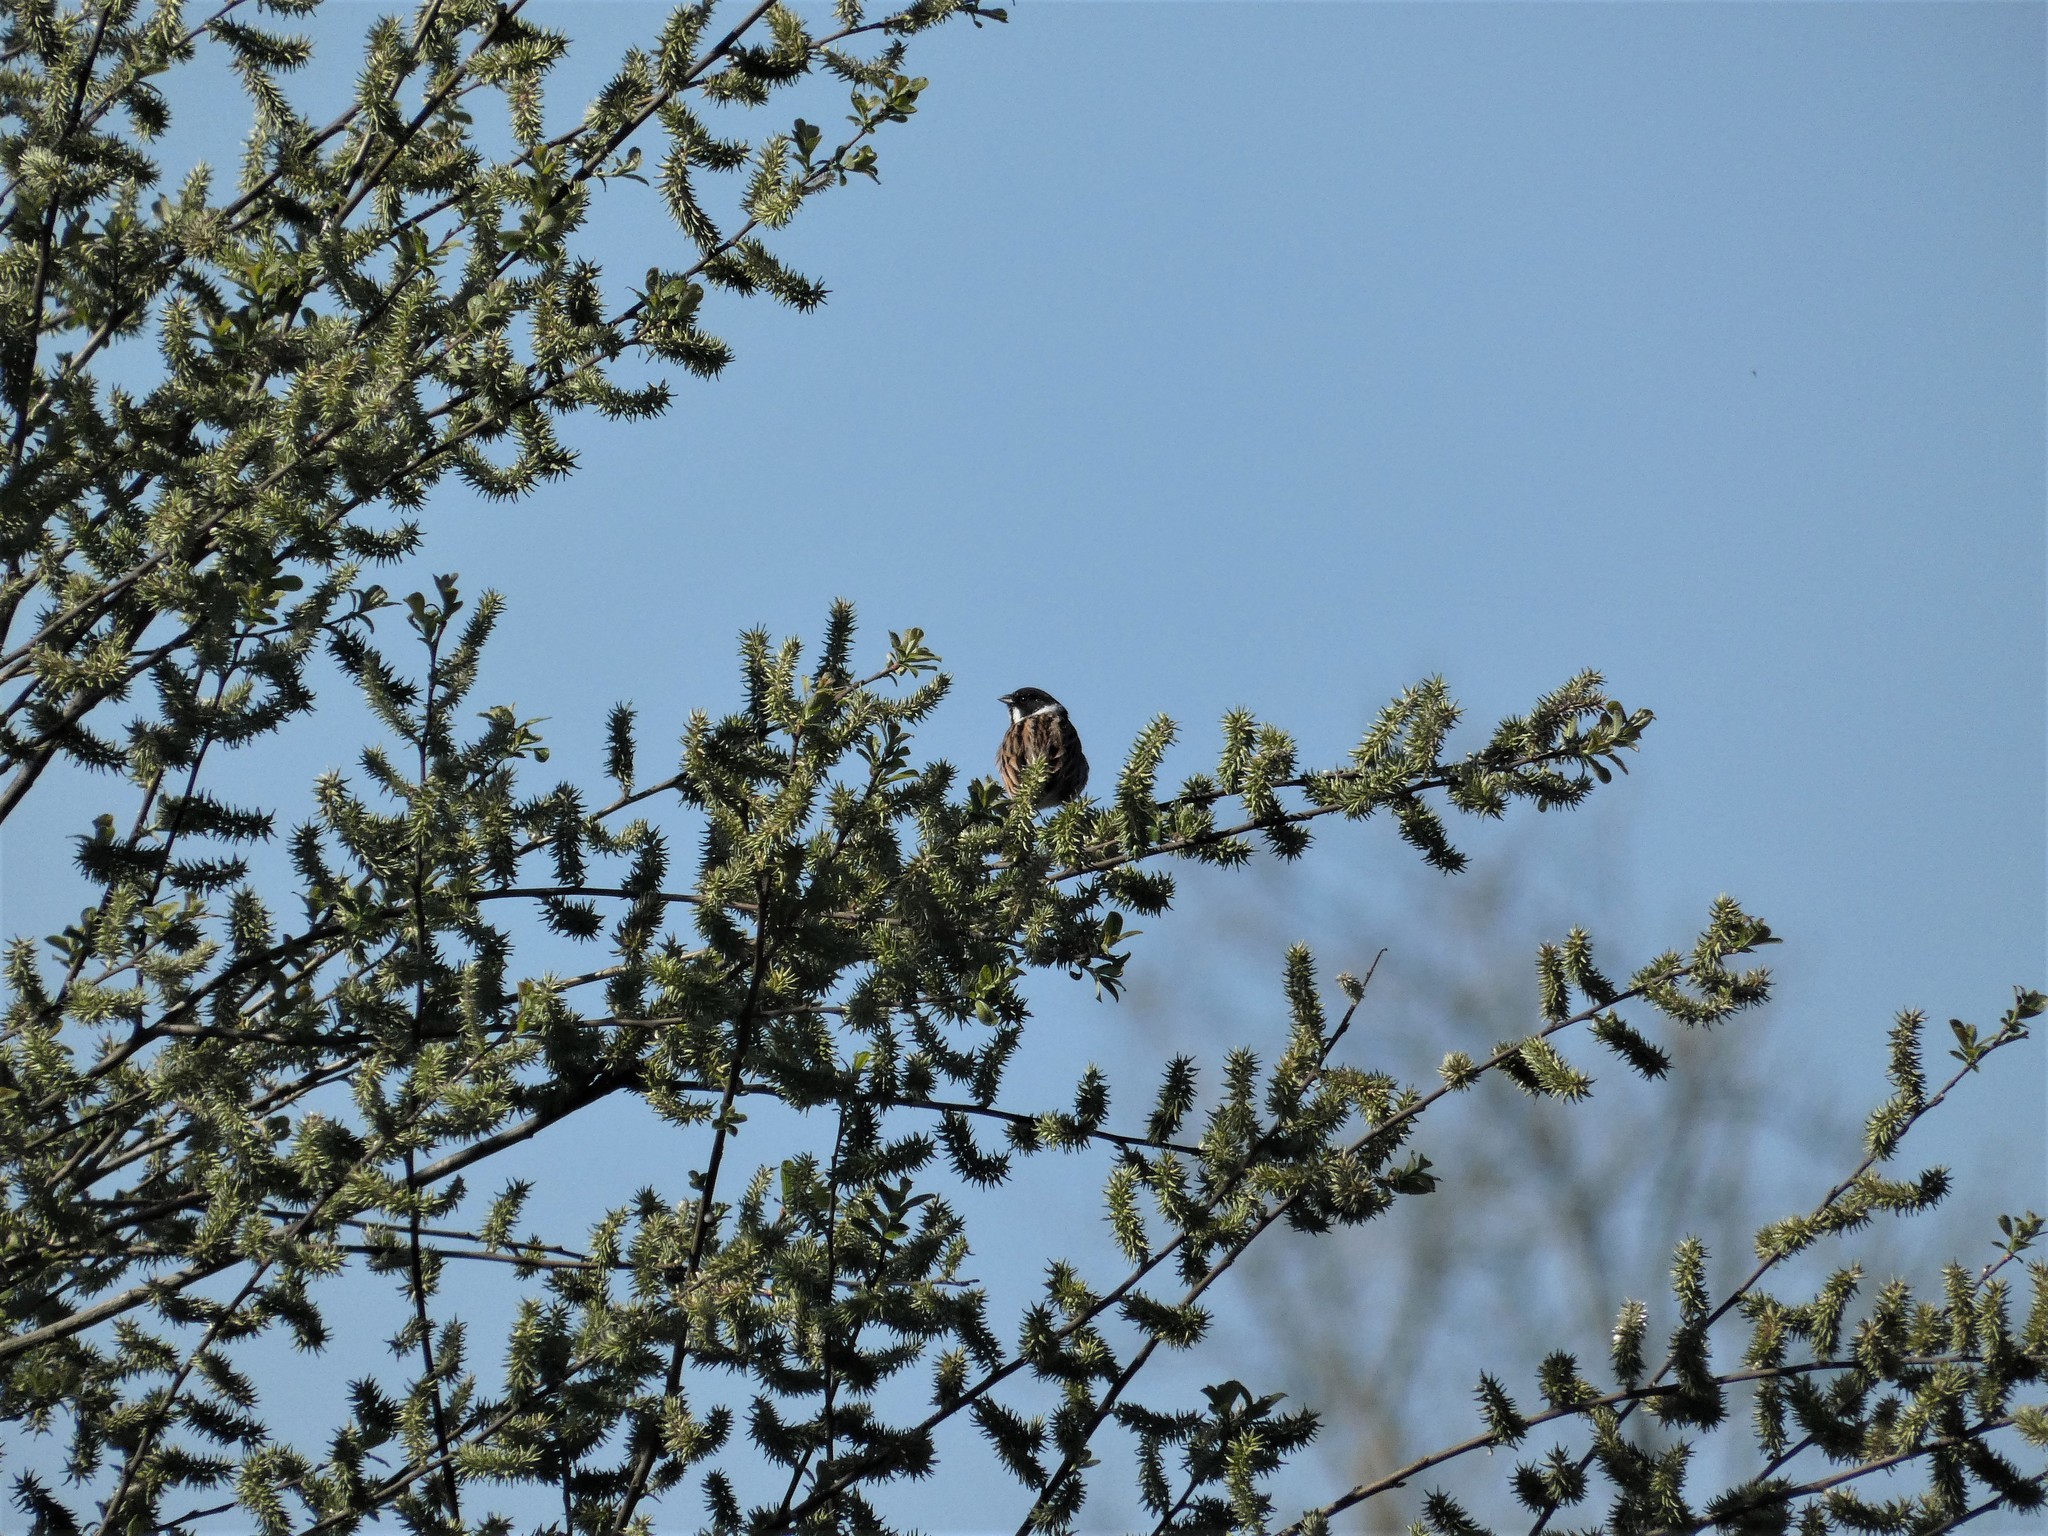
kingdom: Animalia
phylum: Chordata
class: Aves
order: Passeriformes
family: Emberizidae
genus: Emberiza
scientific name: Emberiza schoeniclus
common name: Reed bunting
